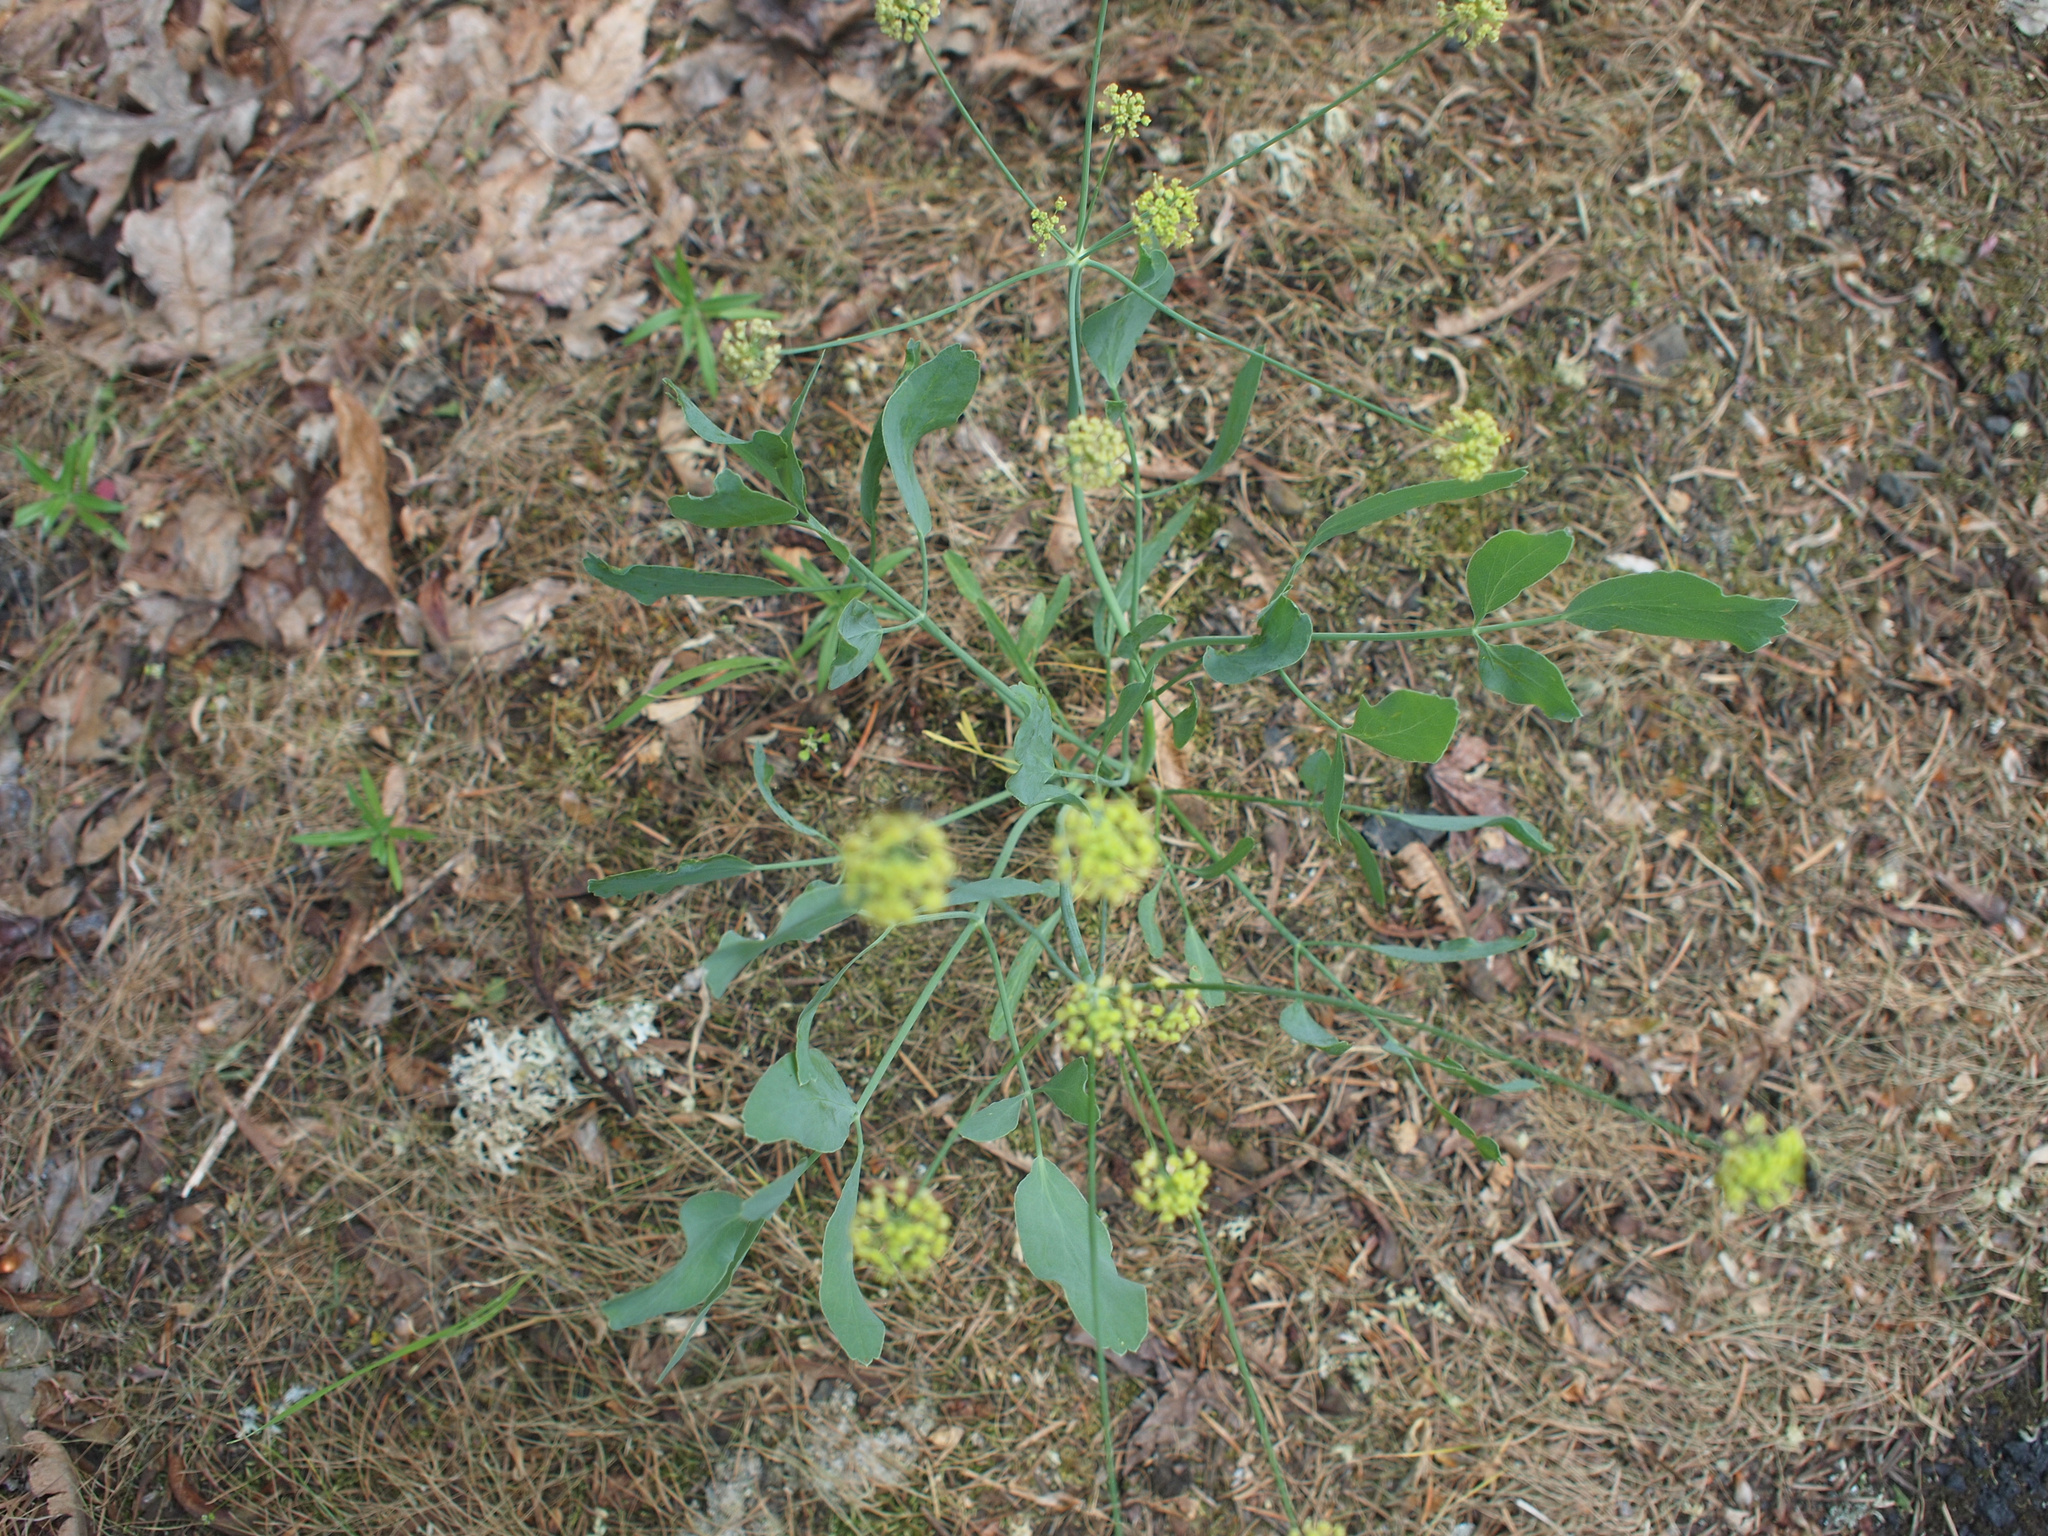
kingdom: Plantae
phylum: Tracheophyta
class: Magnoliopsida
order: Apiales
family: Apiaceae
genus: Lomatium
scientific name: Lomatium nudicaule
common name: Pestle lomatium
